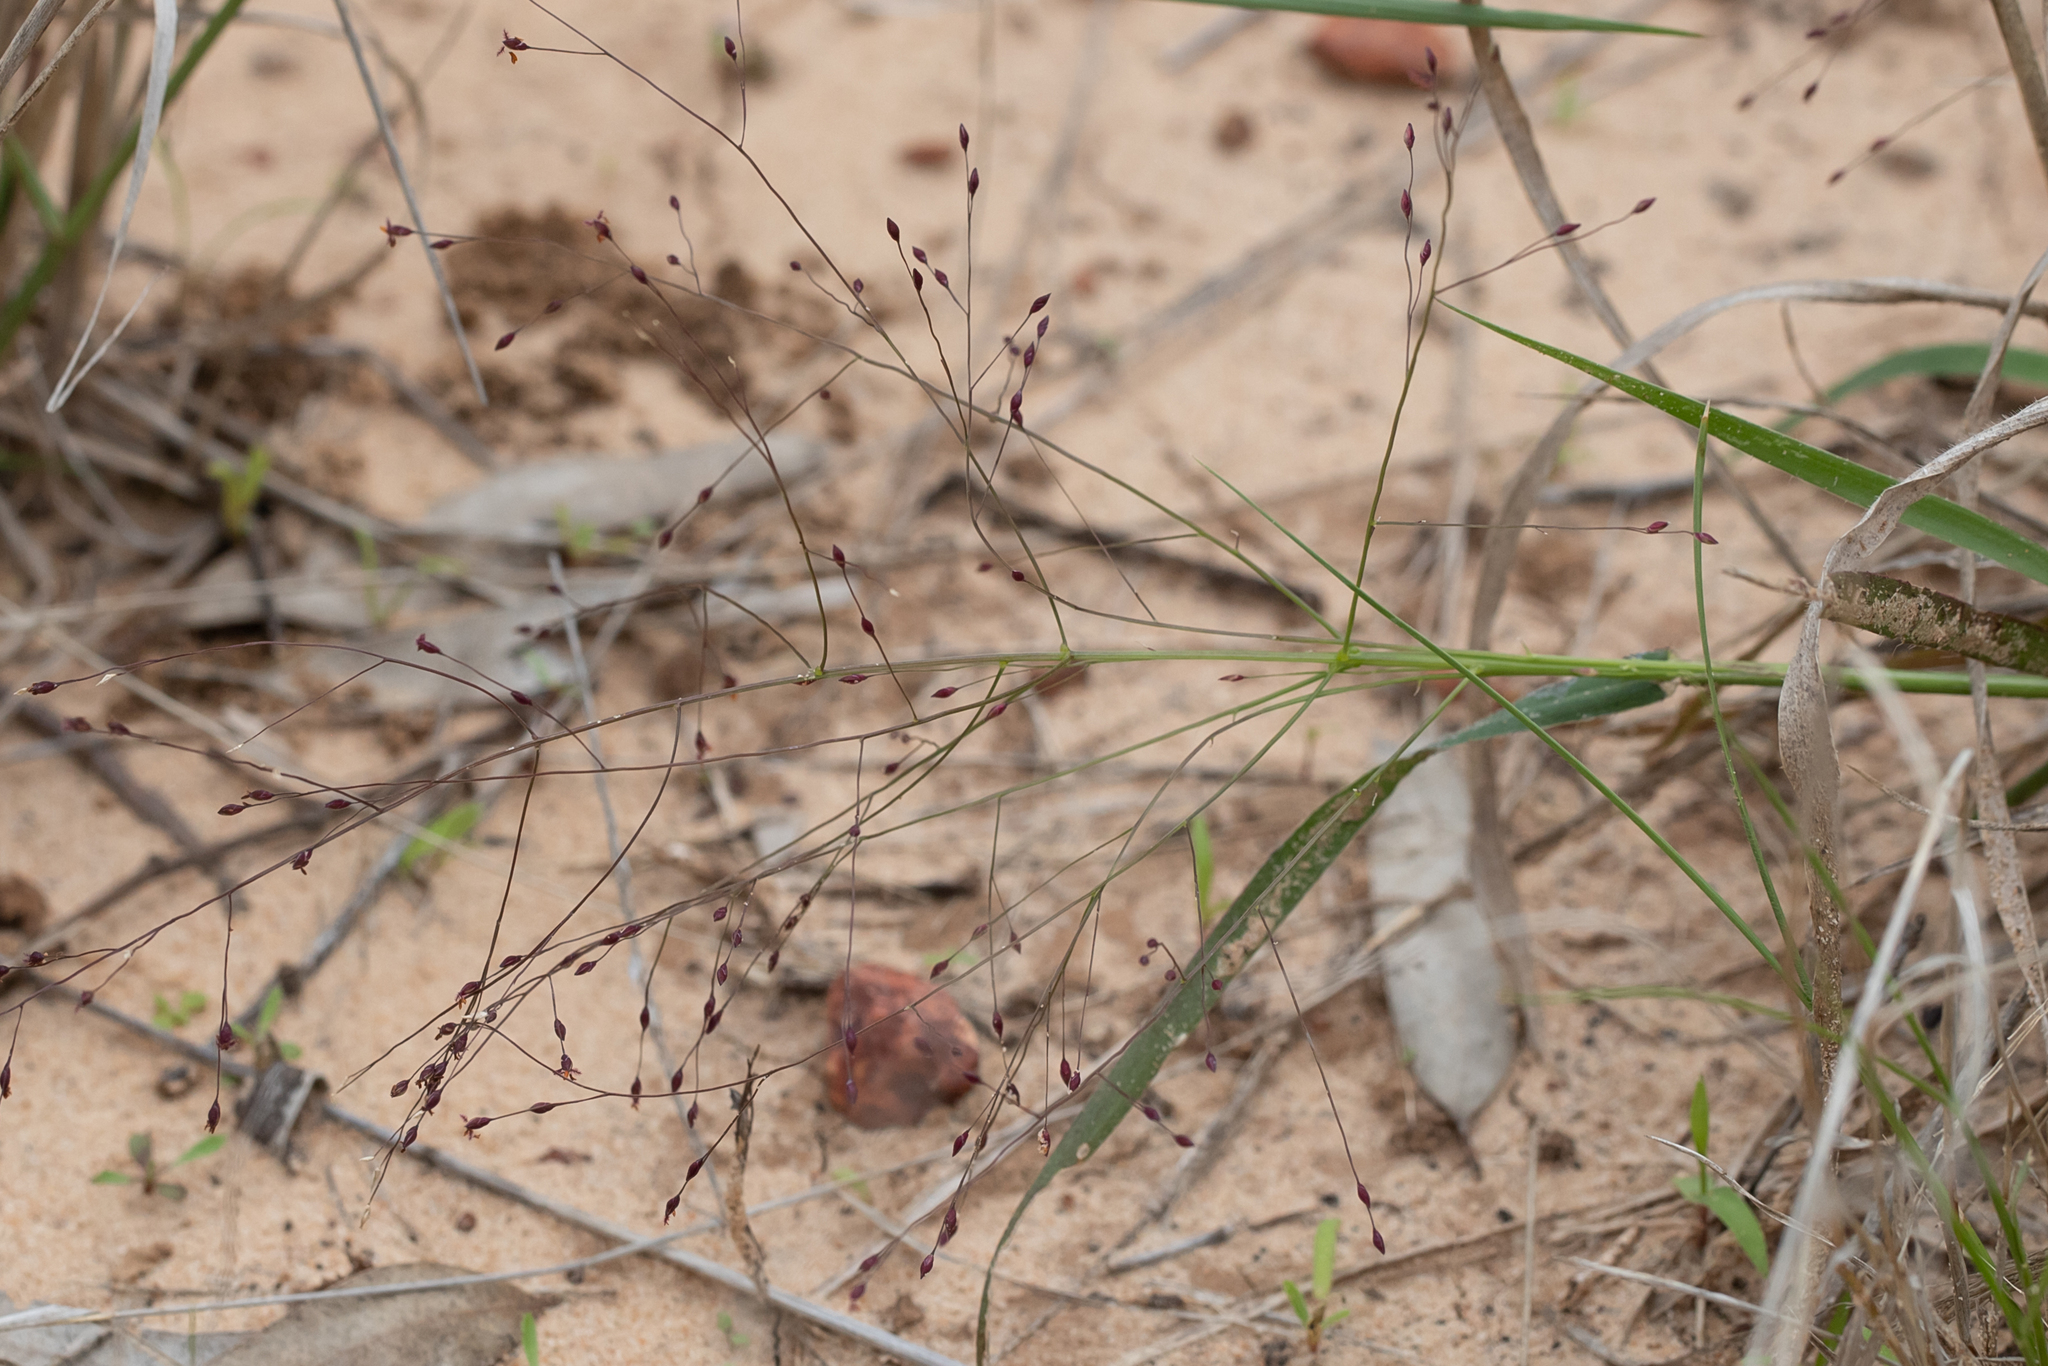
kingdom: Plantae
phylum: Tracheophyta
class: Liliopsida
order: Poales
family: Poaceae
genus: Panicum
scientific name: Panicum effusum
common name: Hairy panic grass
